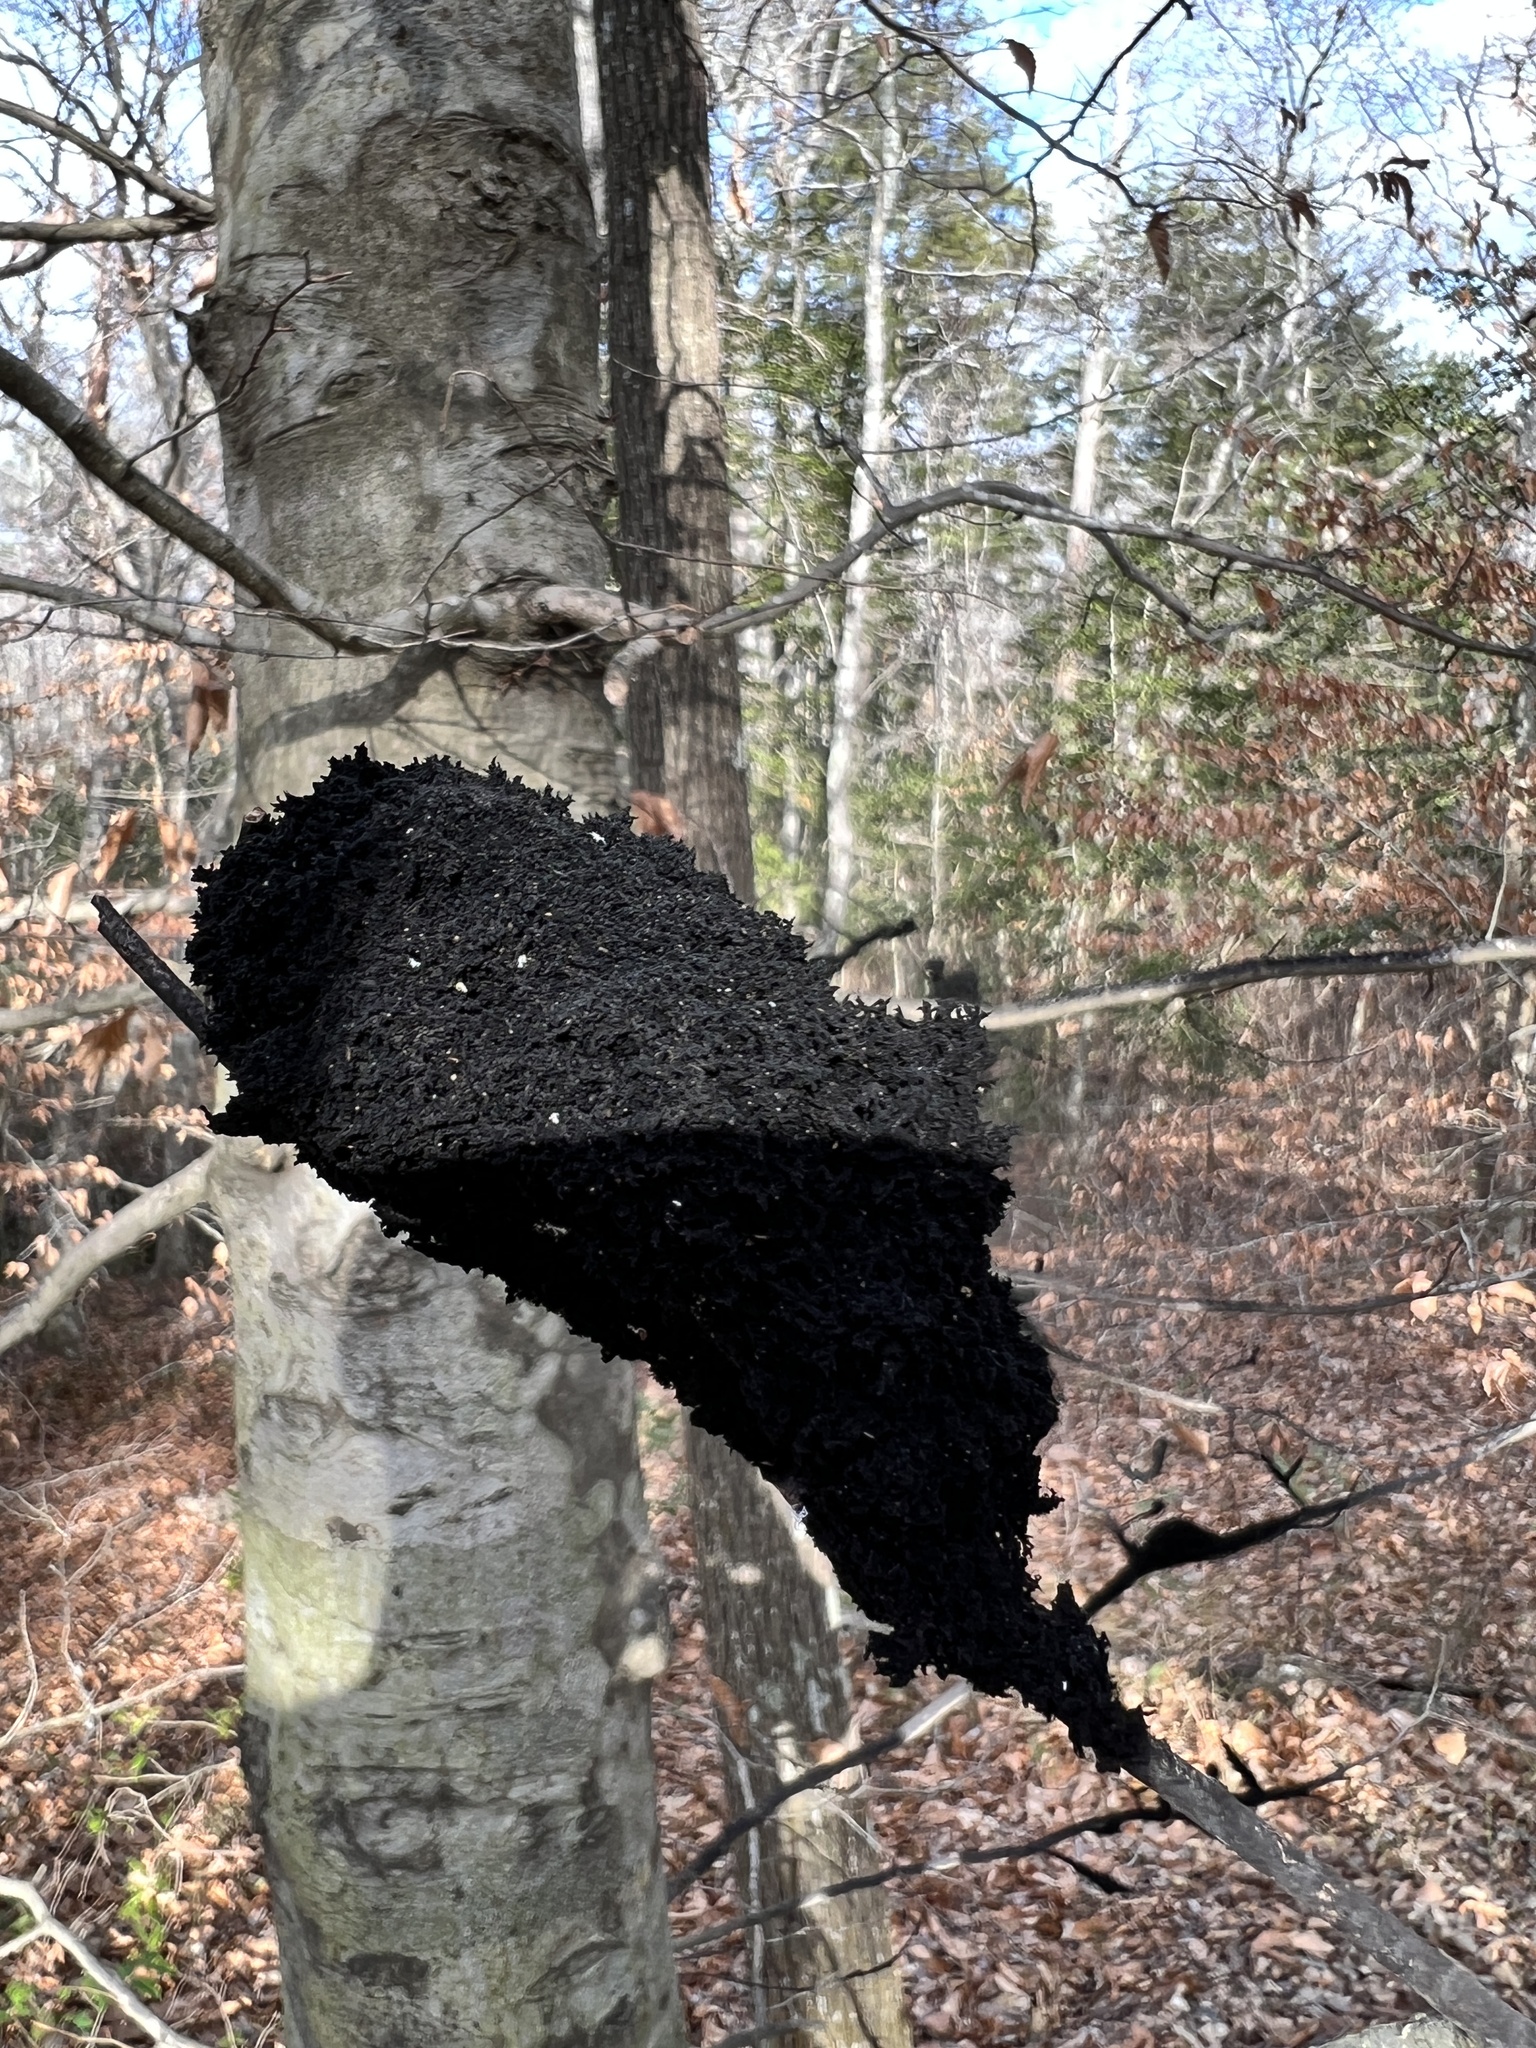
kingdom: Fungi
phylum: Ascomycota
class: Dothideomycetes
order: Capnodiales
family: Capnodiaceae
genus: Scorias
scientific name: Scorias spongiosa
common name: Black sooty mold
